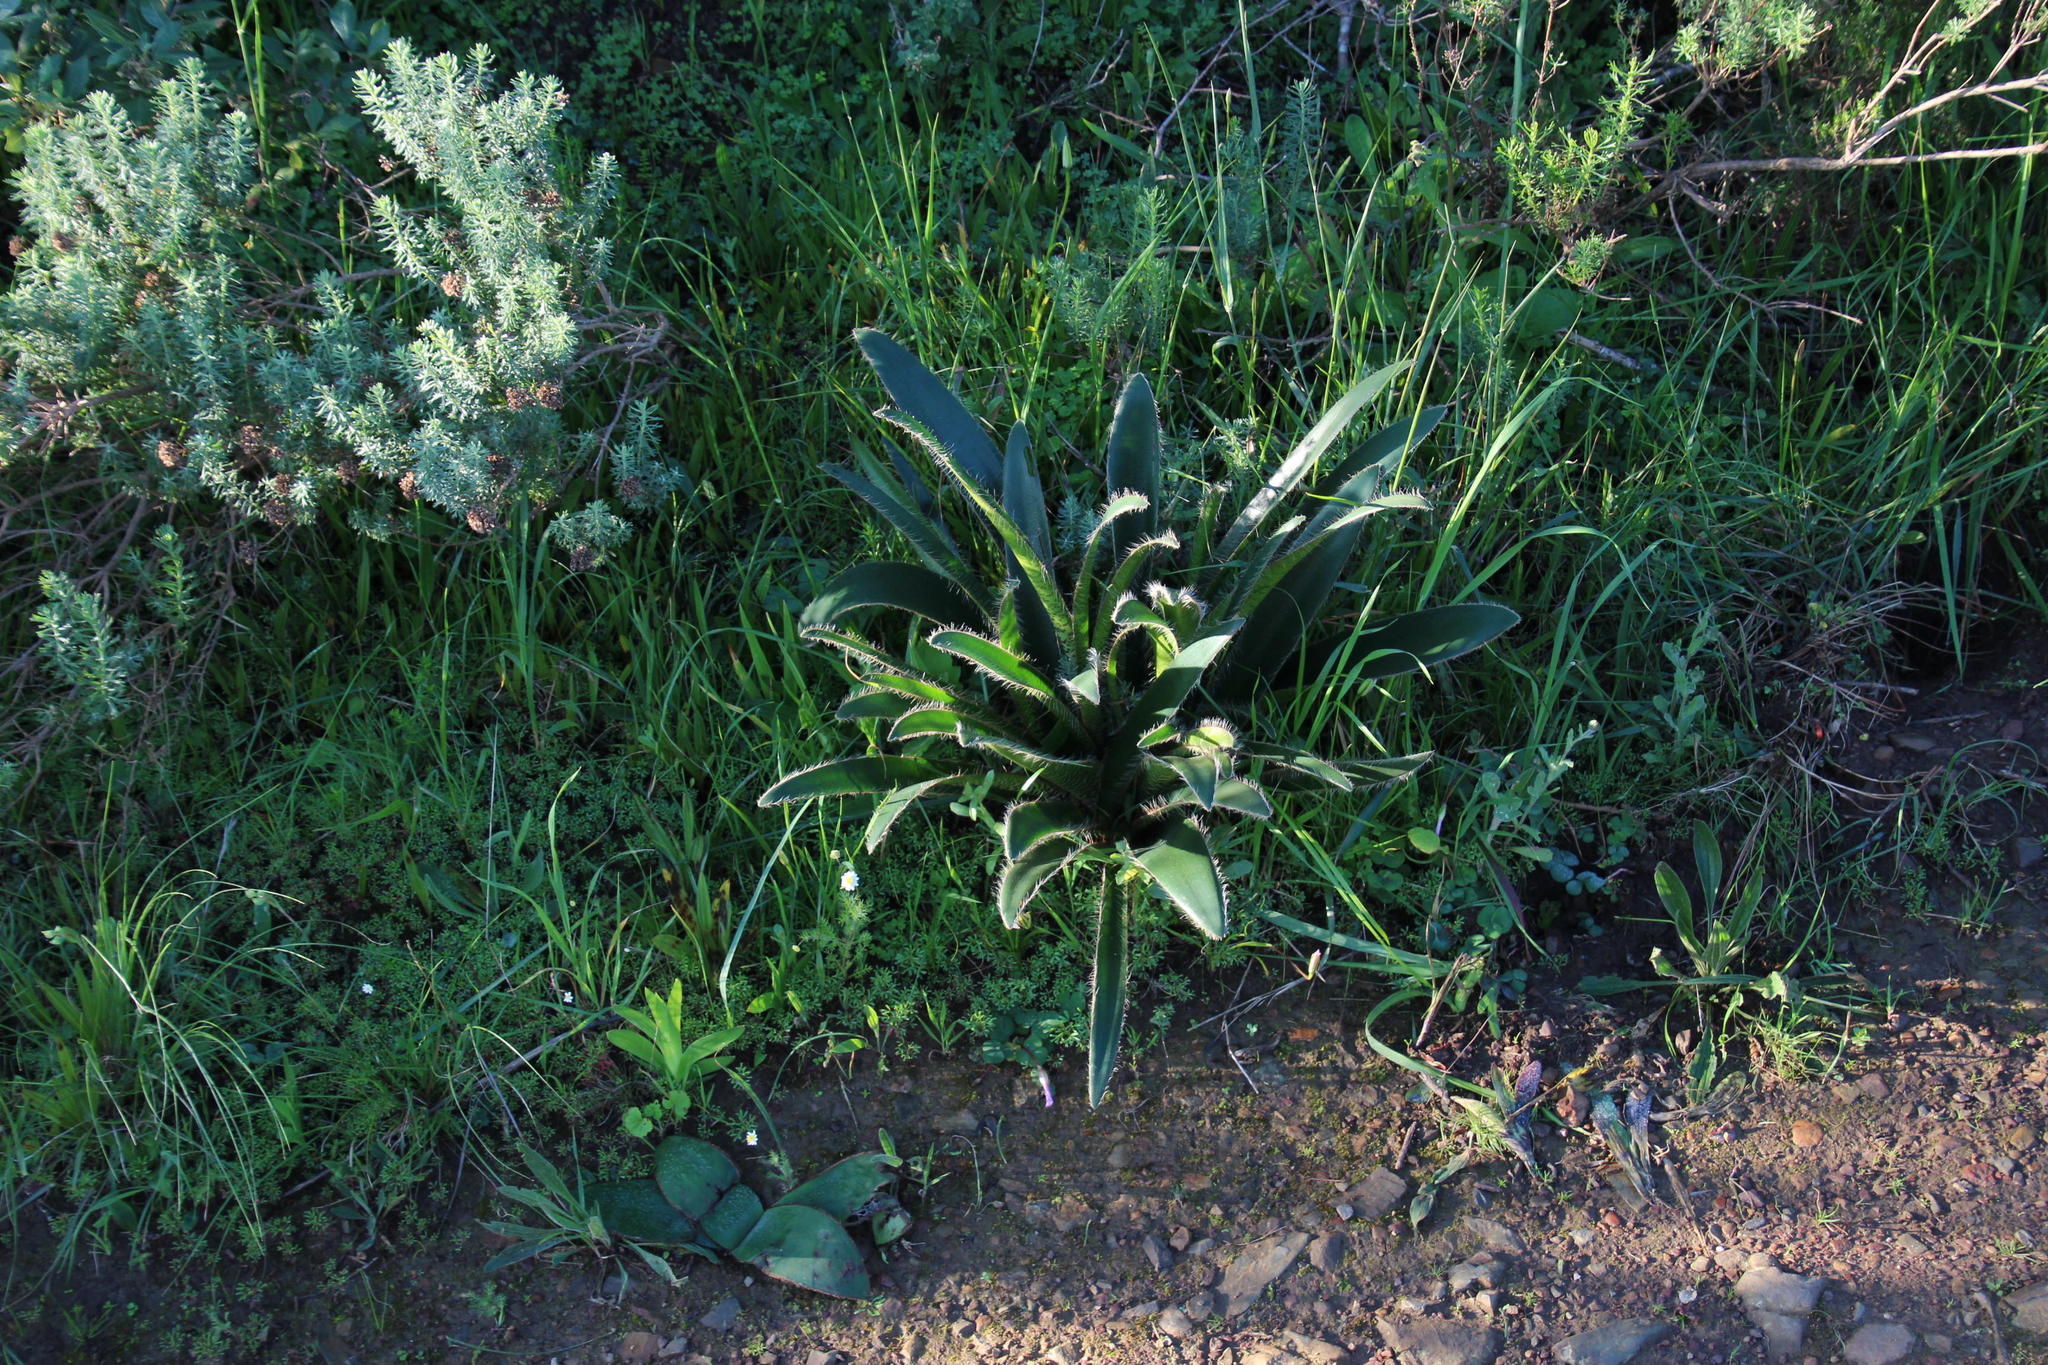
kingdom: Plantae
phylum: Tracheophyta
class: Liliopsida
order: Asparagales
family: Amaryllidaceae
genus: Crossyne
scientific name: Crossyne guttata
